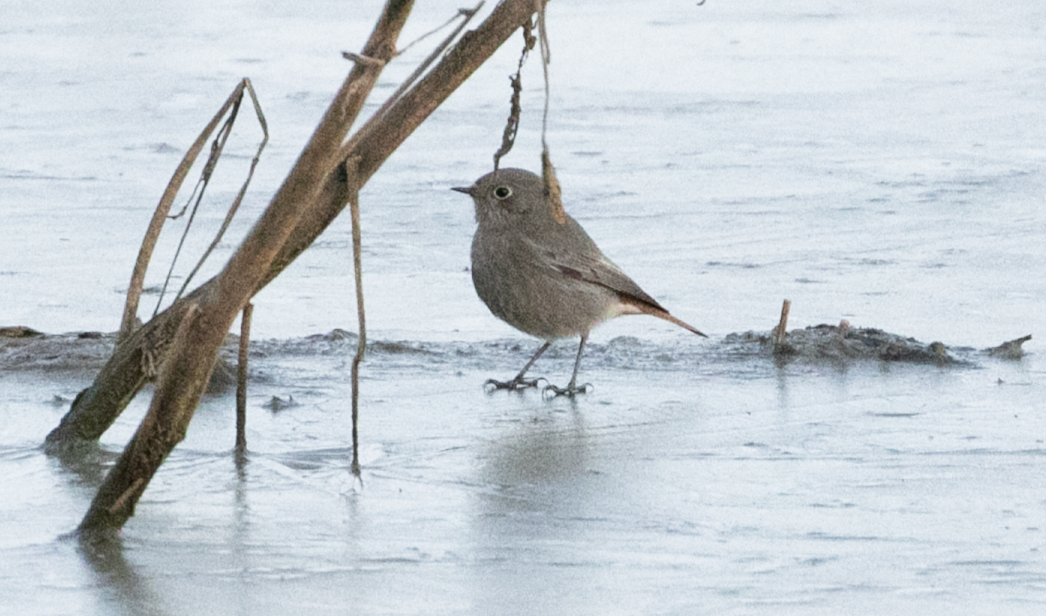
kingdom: Animalia
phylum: Chordata
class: Aves
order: Passeriformes
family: Muscicapidae
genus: Phoenicurus
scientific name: Phoenicurus ochruros
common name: Black redstart
